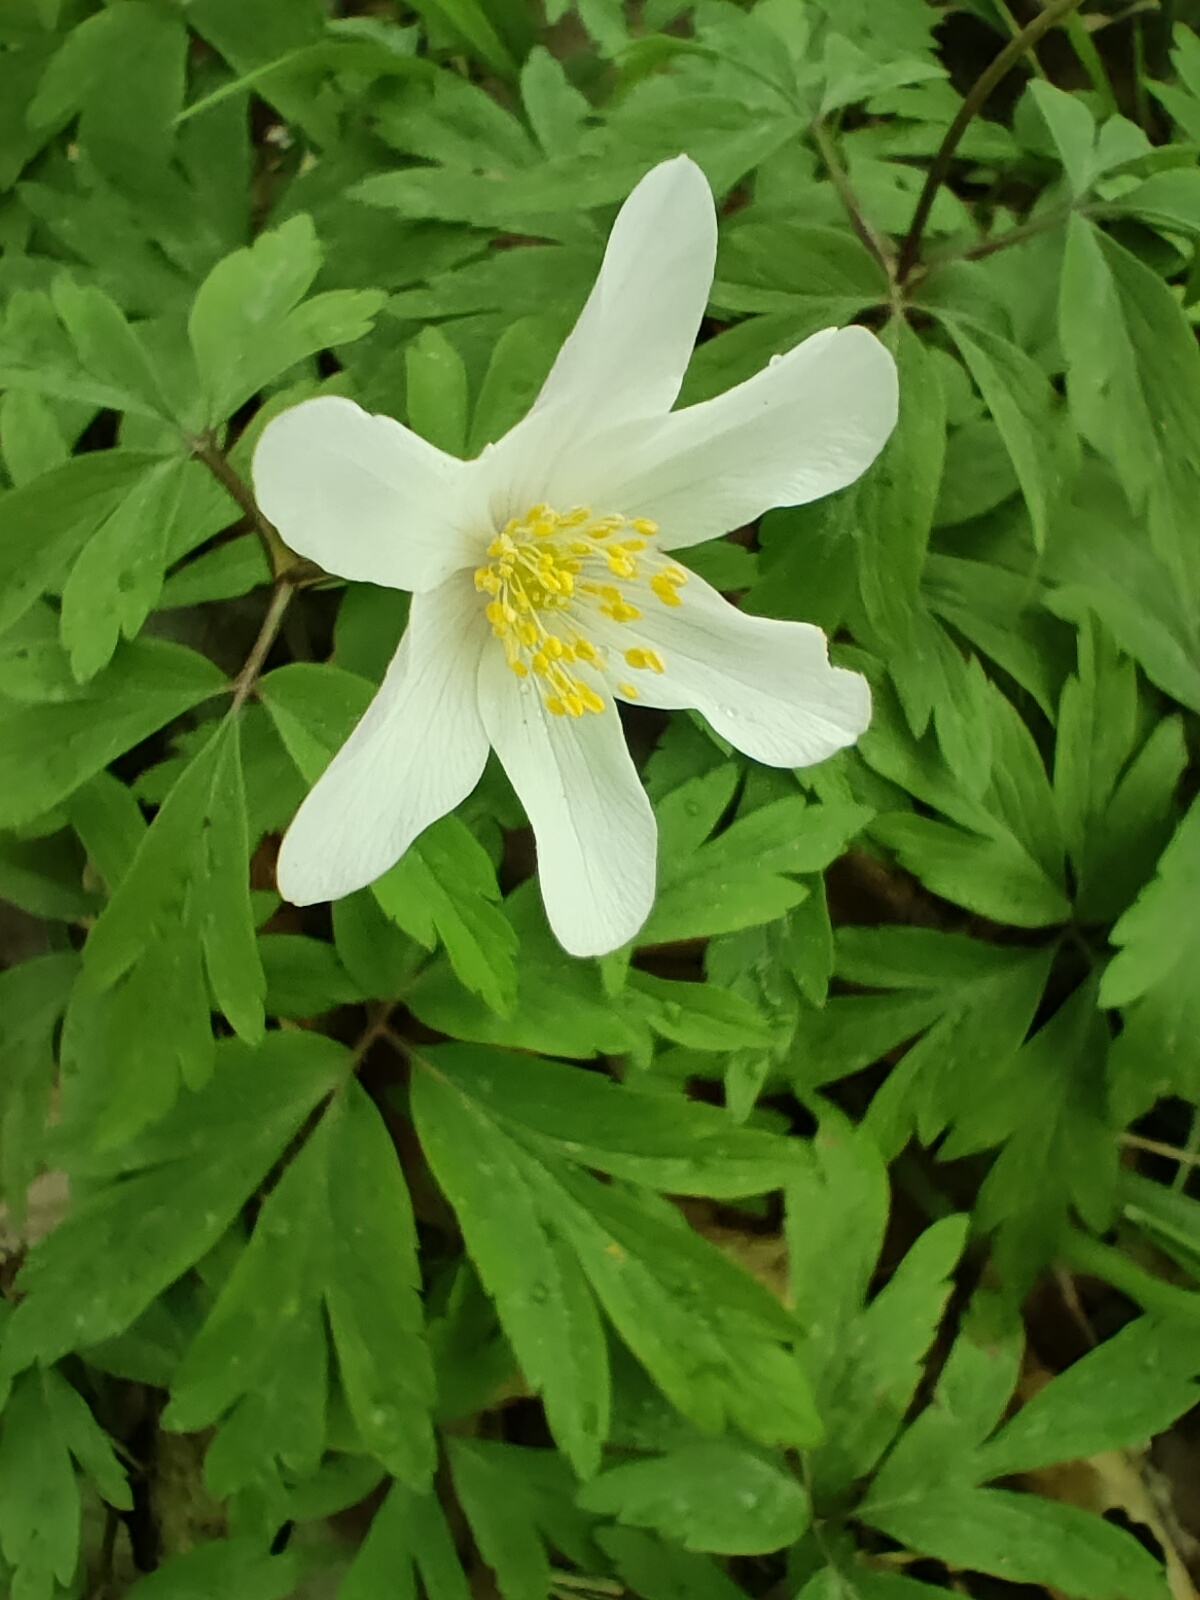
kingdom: Plantae
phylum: Tracheophyta
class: Magnoliopsida
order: Ranunculales
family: Ranunculaceae
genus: Anemone
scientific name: Anemone nemorosa
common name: Wood anemone
